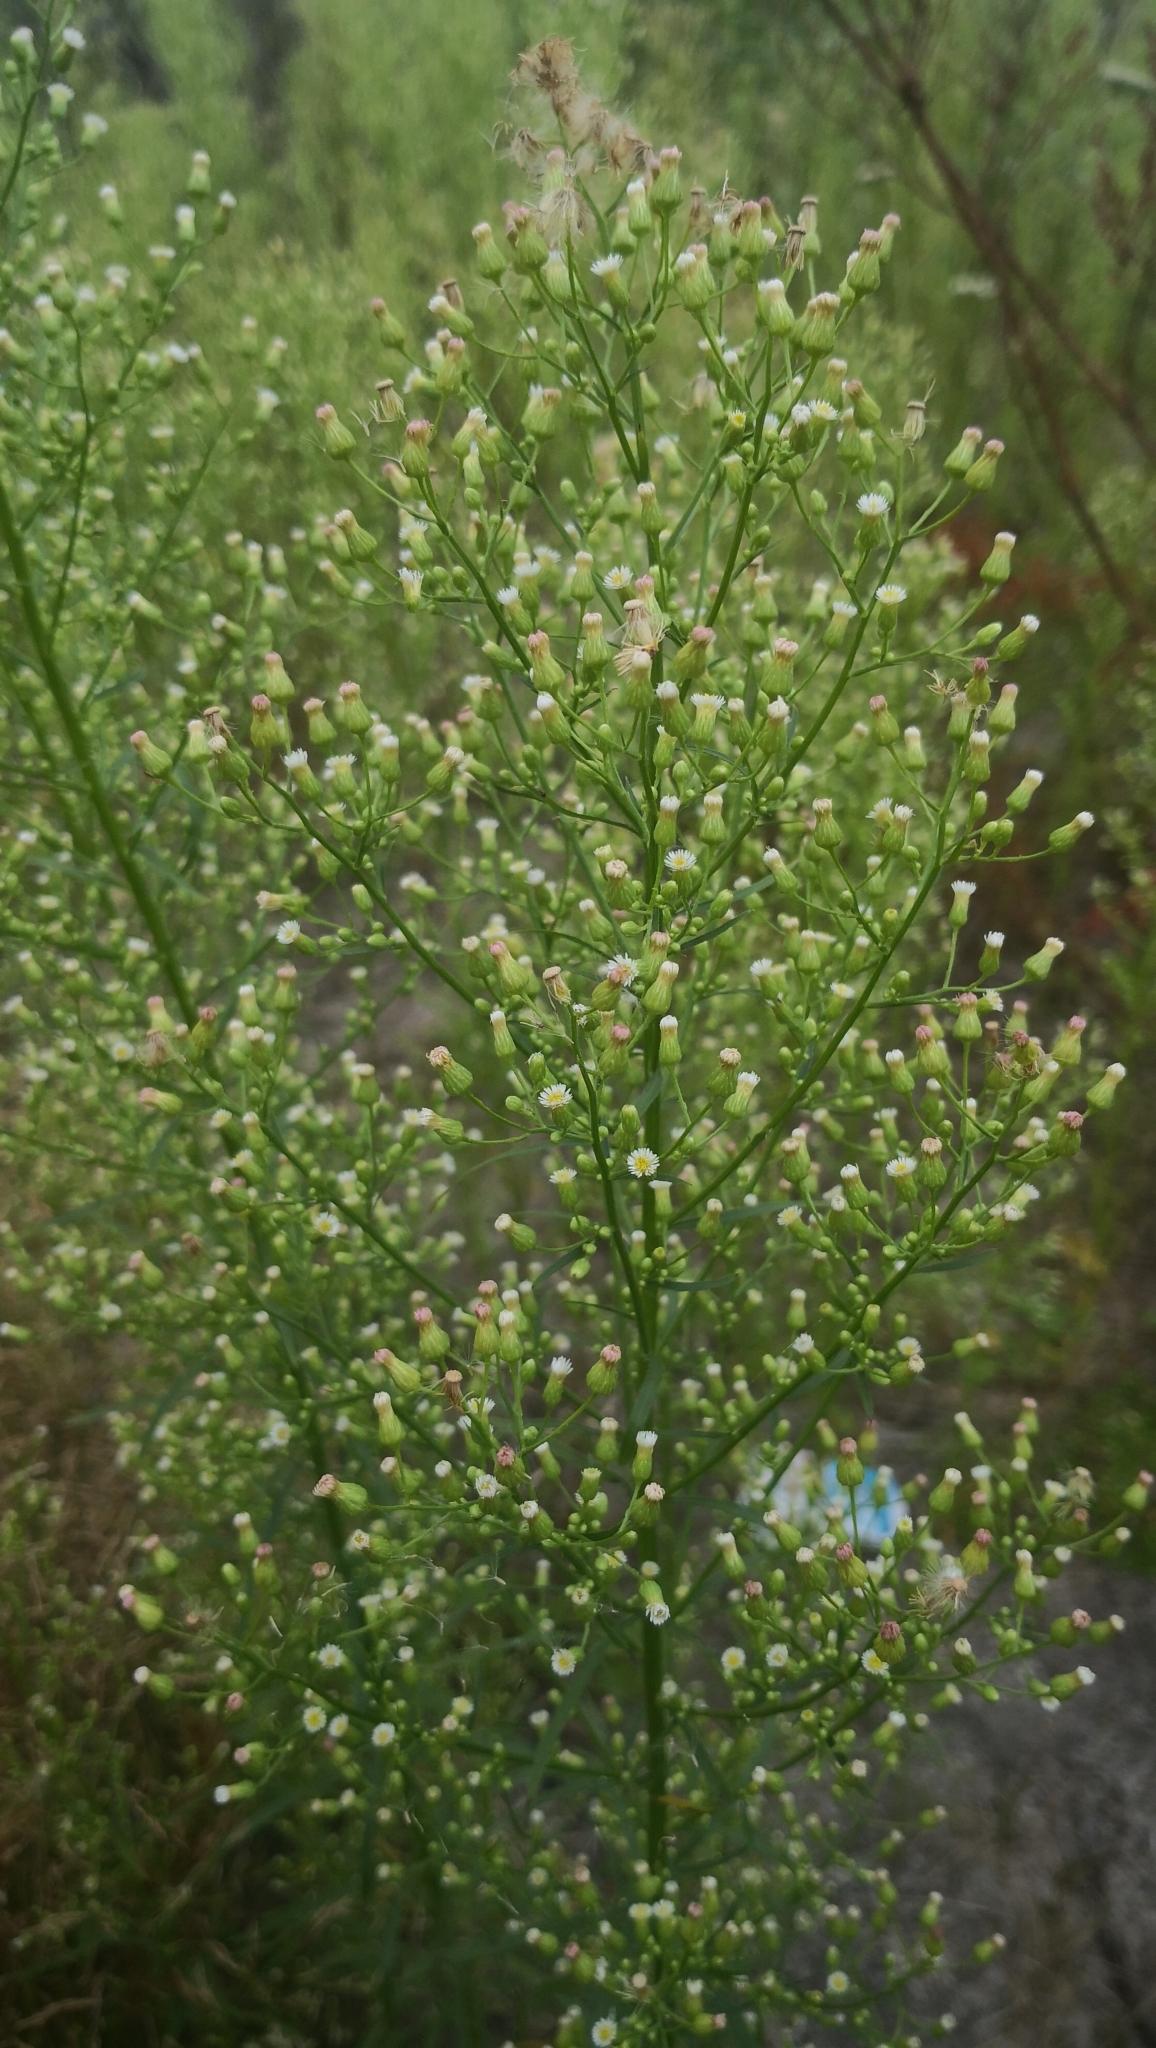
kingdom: Plantae
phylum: Tracheophyta
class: Magnoliopsida
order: Asterales
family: Asteraceae
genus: Erigeron
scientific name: Erigeron canadensis
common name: Canadian fleabane
